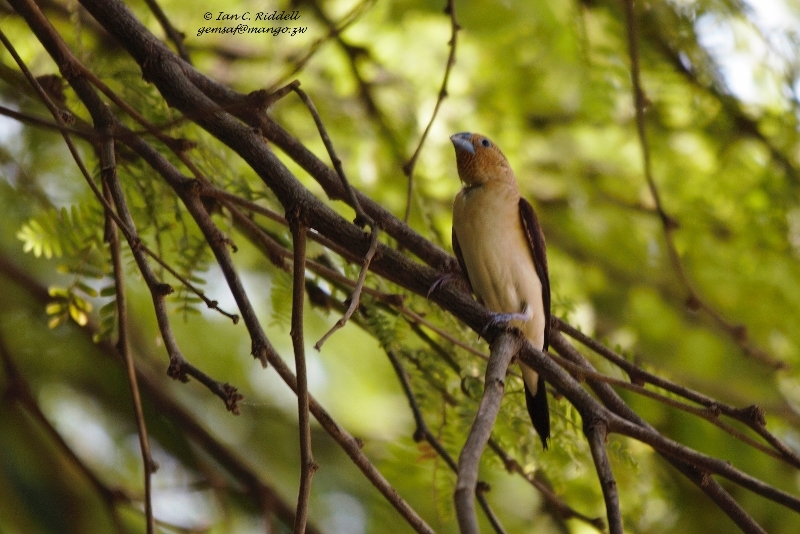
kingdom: Animalia
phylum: Chordata
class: Aves
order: Passeriformes
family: Estrildidae
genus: Euodice
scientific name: Euodice cantans
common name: African silverbill
